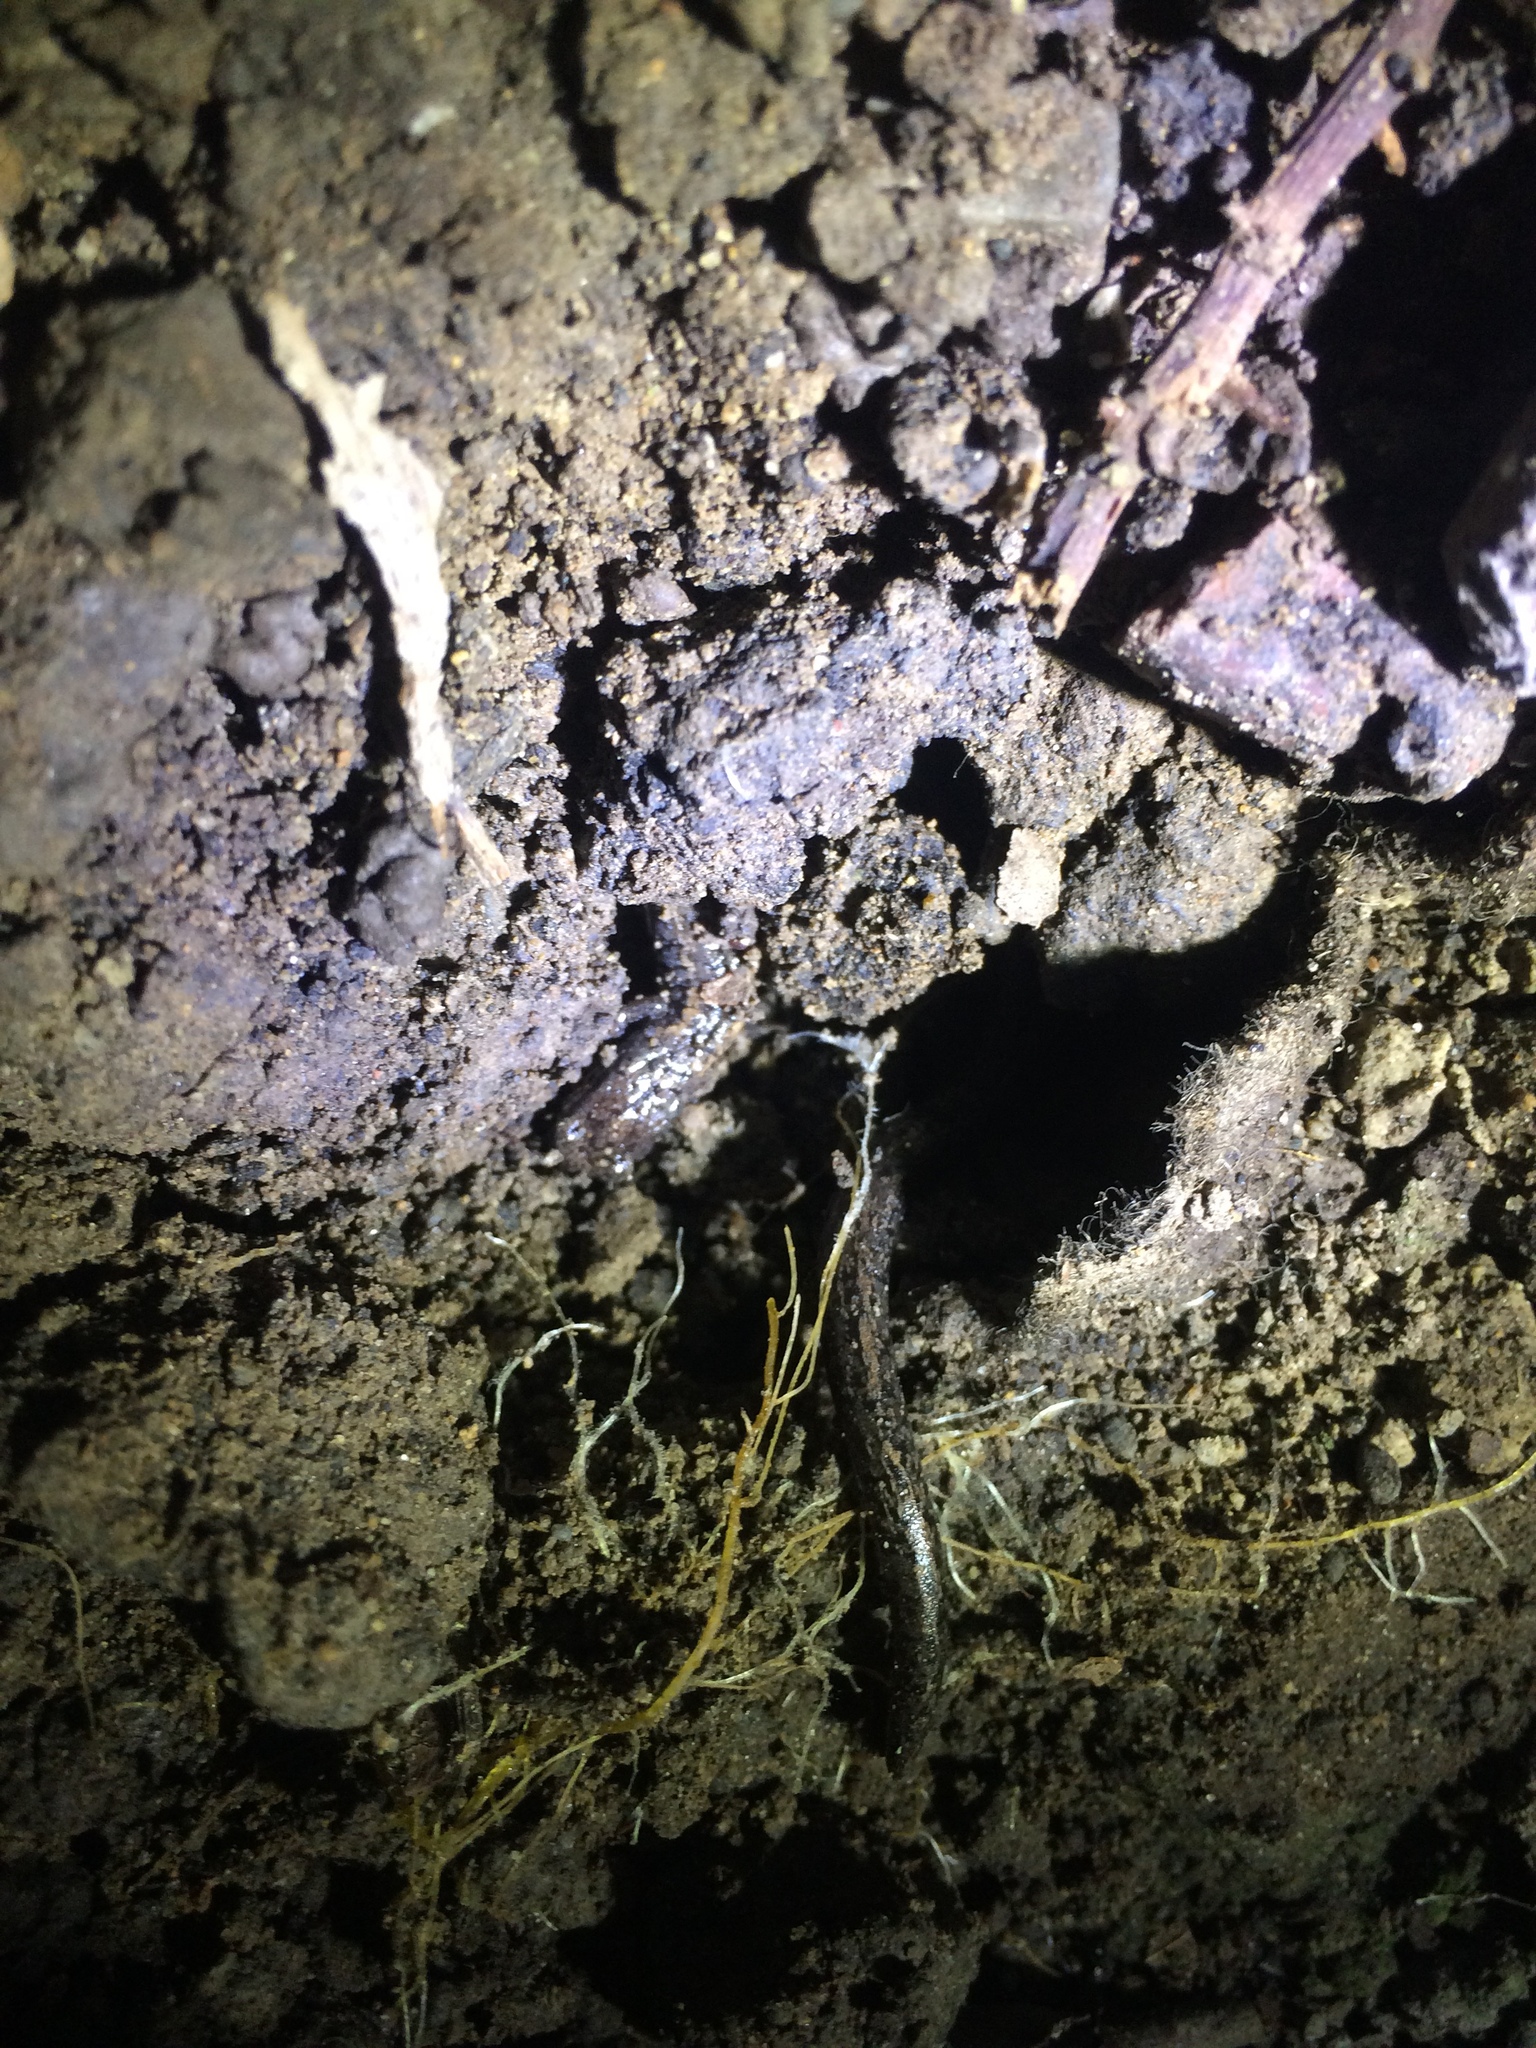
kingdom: Animalia
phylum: Chordata
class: Amphibia
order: Caudata
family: Plethodontidae
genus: Batrachoseps
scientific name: Batrachoseps attenuatus
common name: California slender salamander
